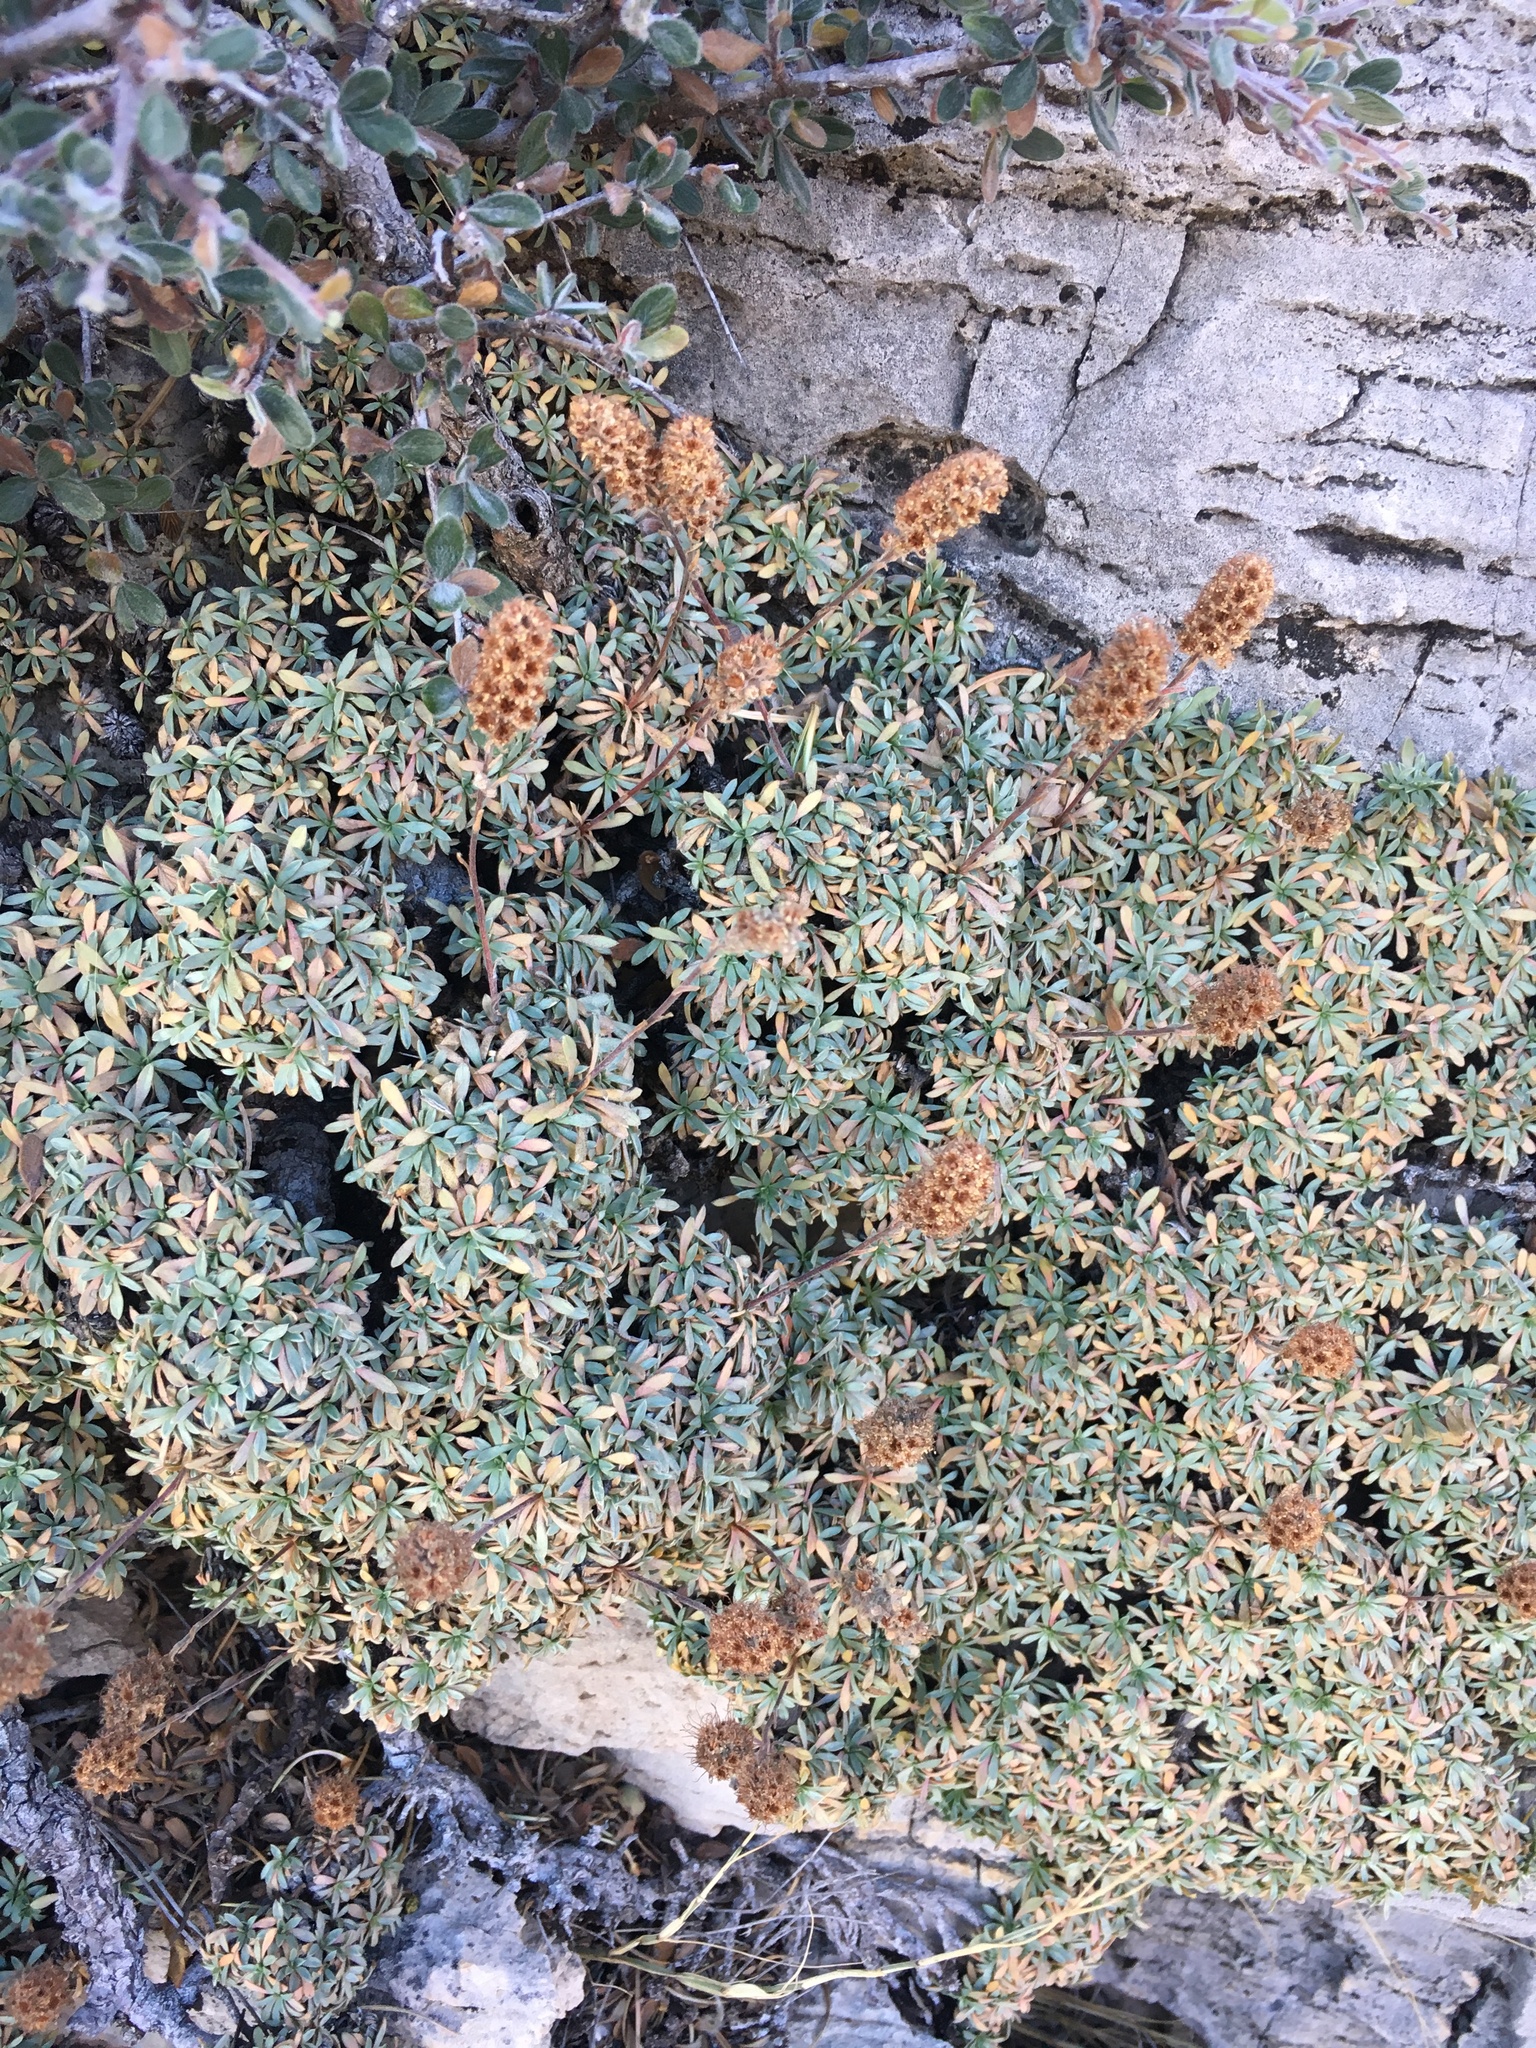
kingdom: Plantae
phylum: Tracheophyta
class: Magnoliopsida
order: Rosales
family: Rosaceae
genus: Petrophytum
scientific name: Petrophytum caespitosum
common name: Mat rockspirea
